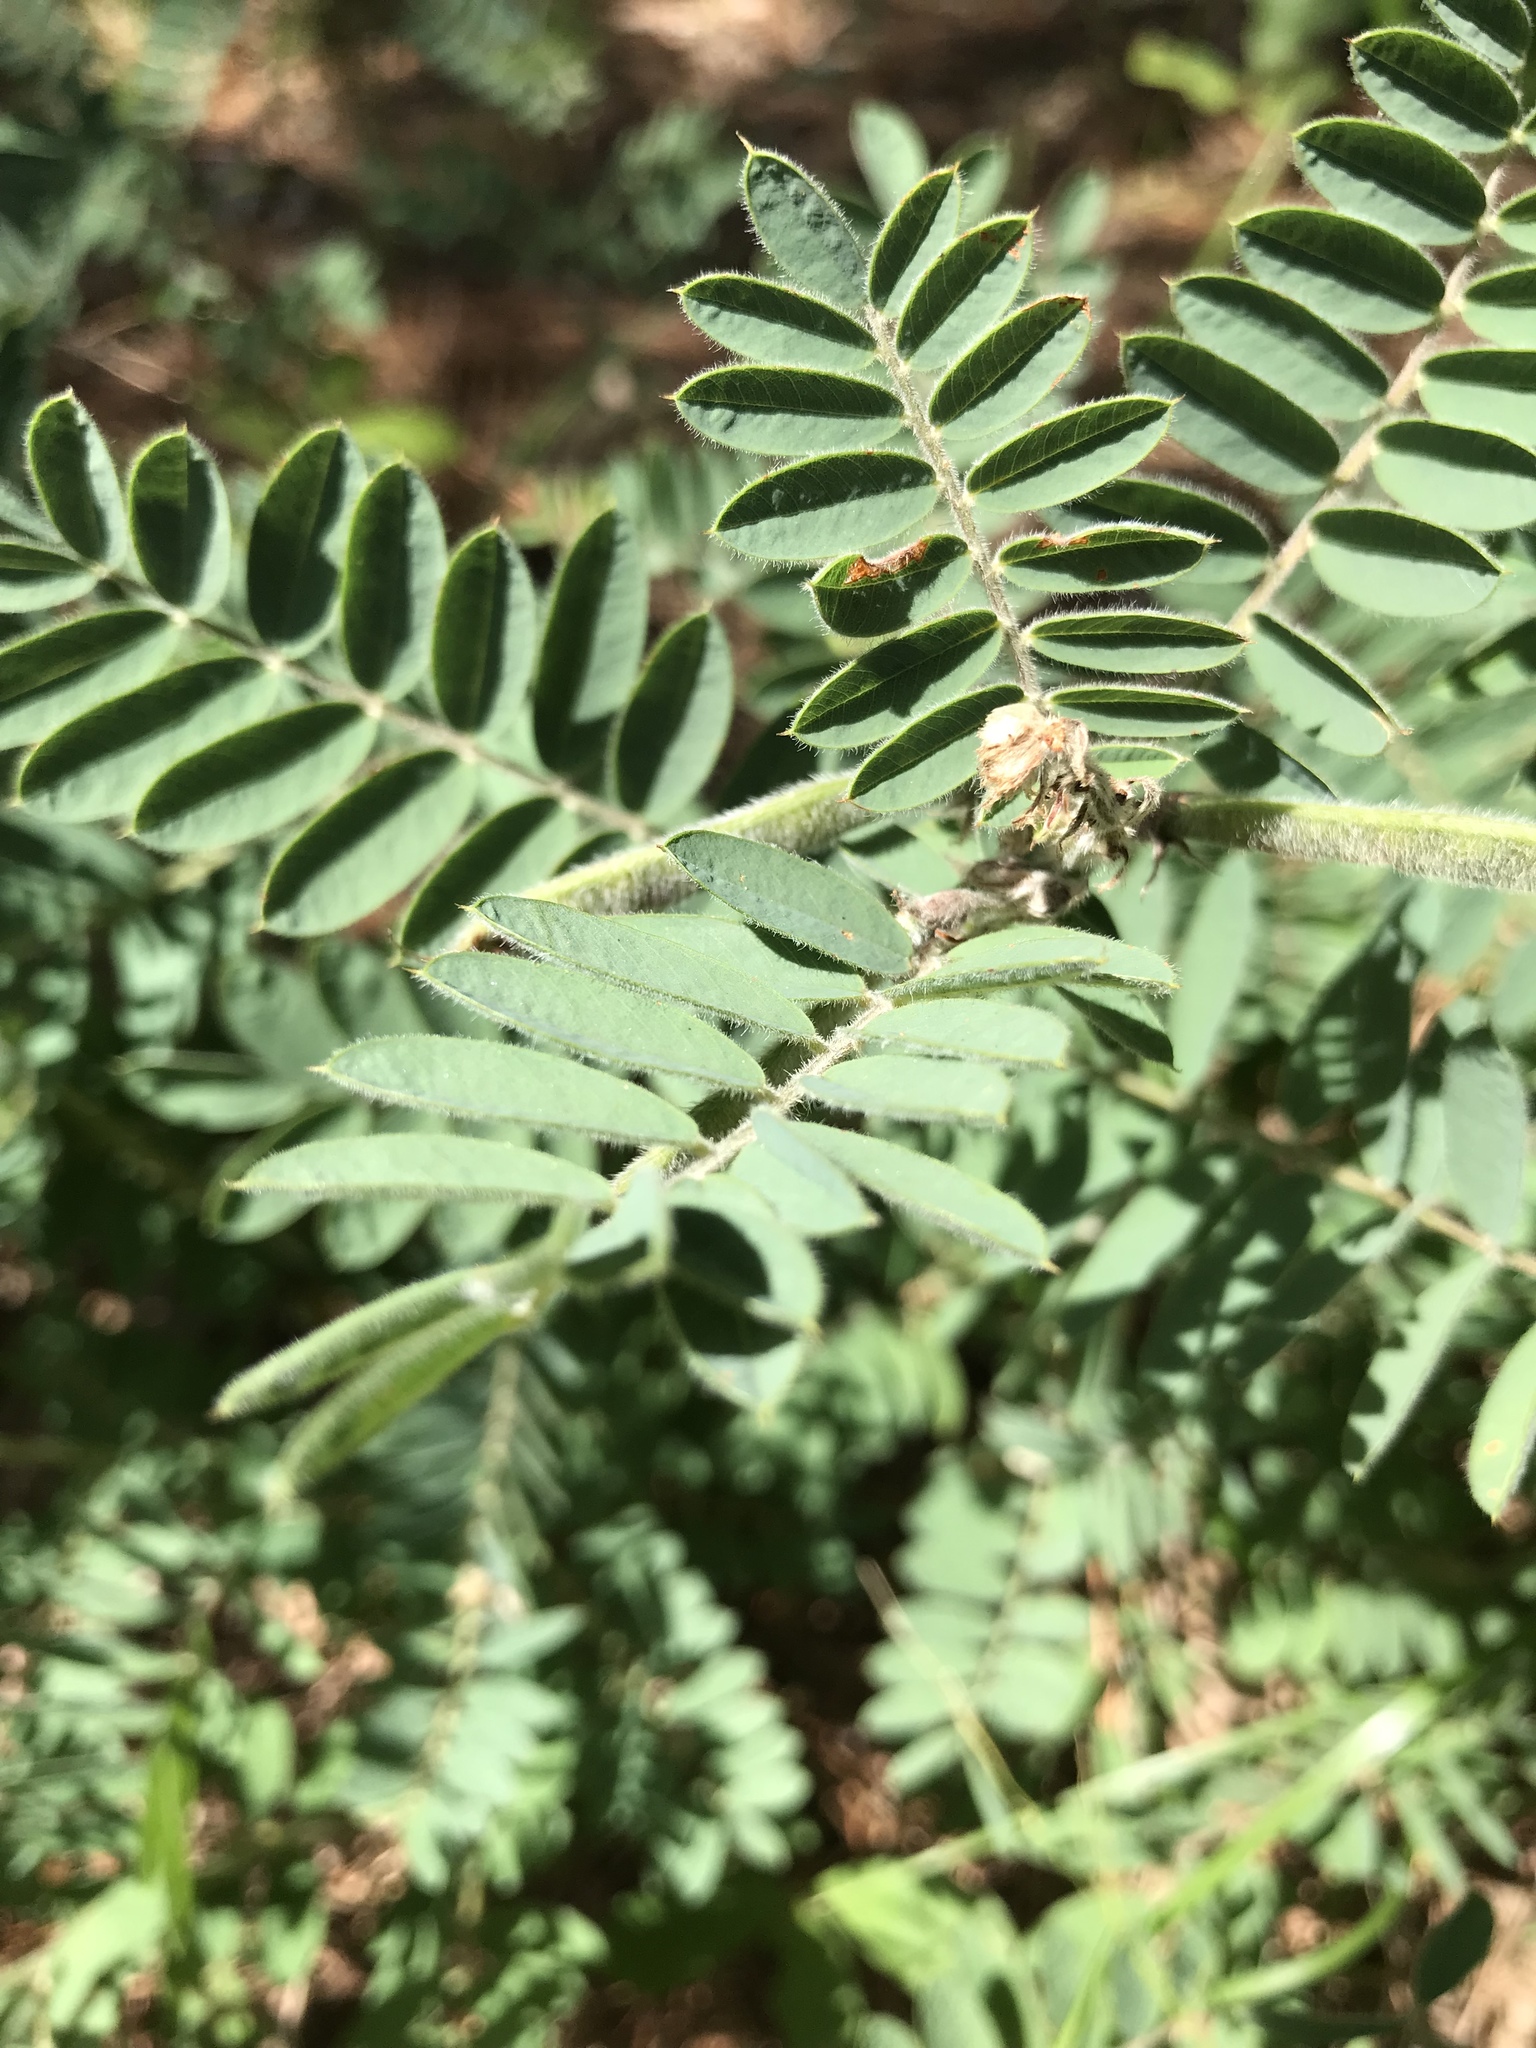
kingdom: Plantae
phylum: Tracheophyta
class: Magnoliopsida
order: Fabales
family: Fabaceae
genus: Tephrosia
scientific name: Tephrosia virginiana
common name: Rabbit-pea
